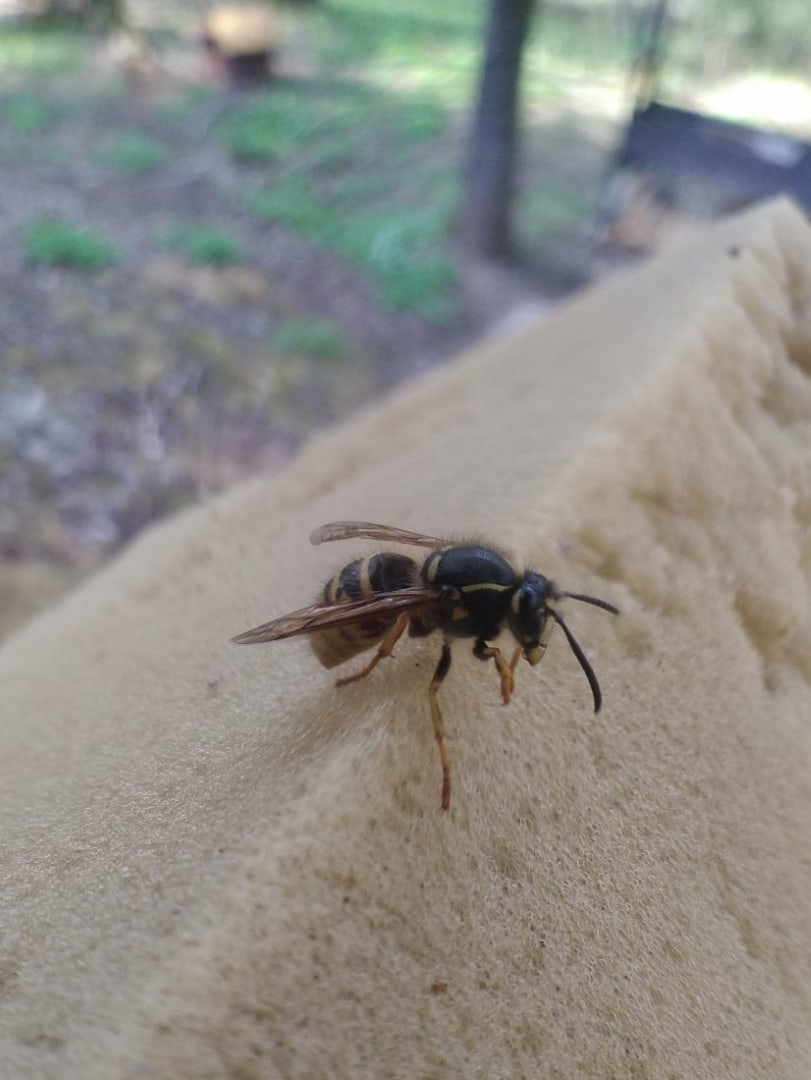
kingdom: Animalia
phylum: Arthropoda
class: Insecta
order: Hymenoptera
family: Vespidae
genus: Dolichovespula
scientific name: Dolichovespula saxonica
